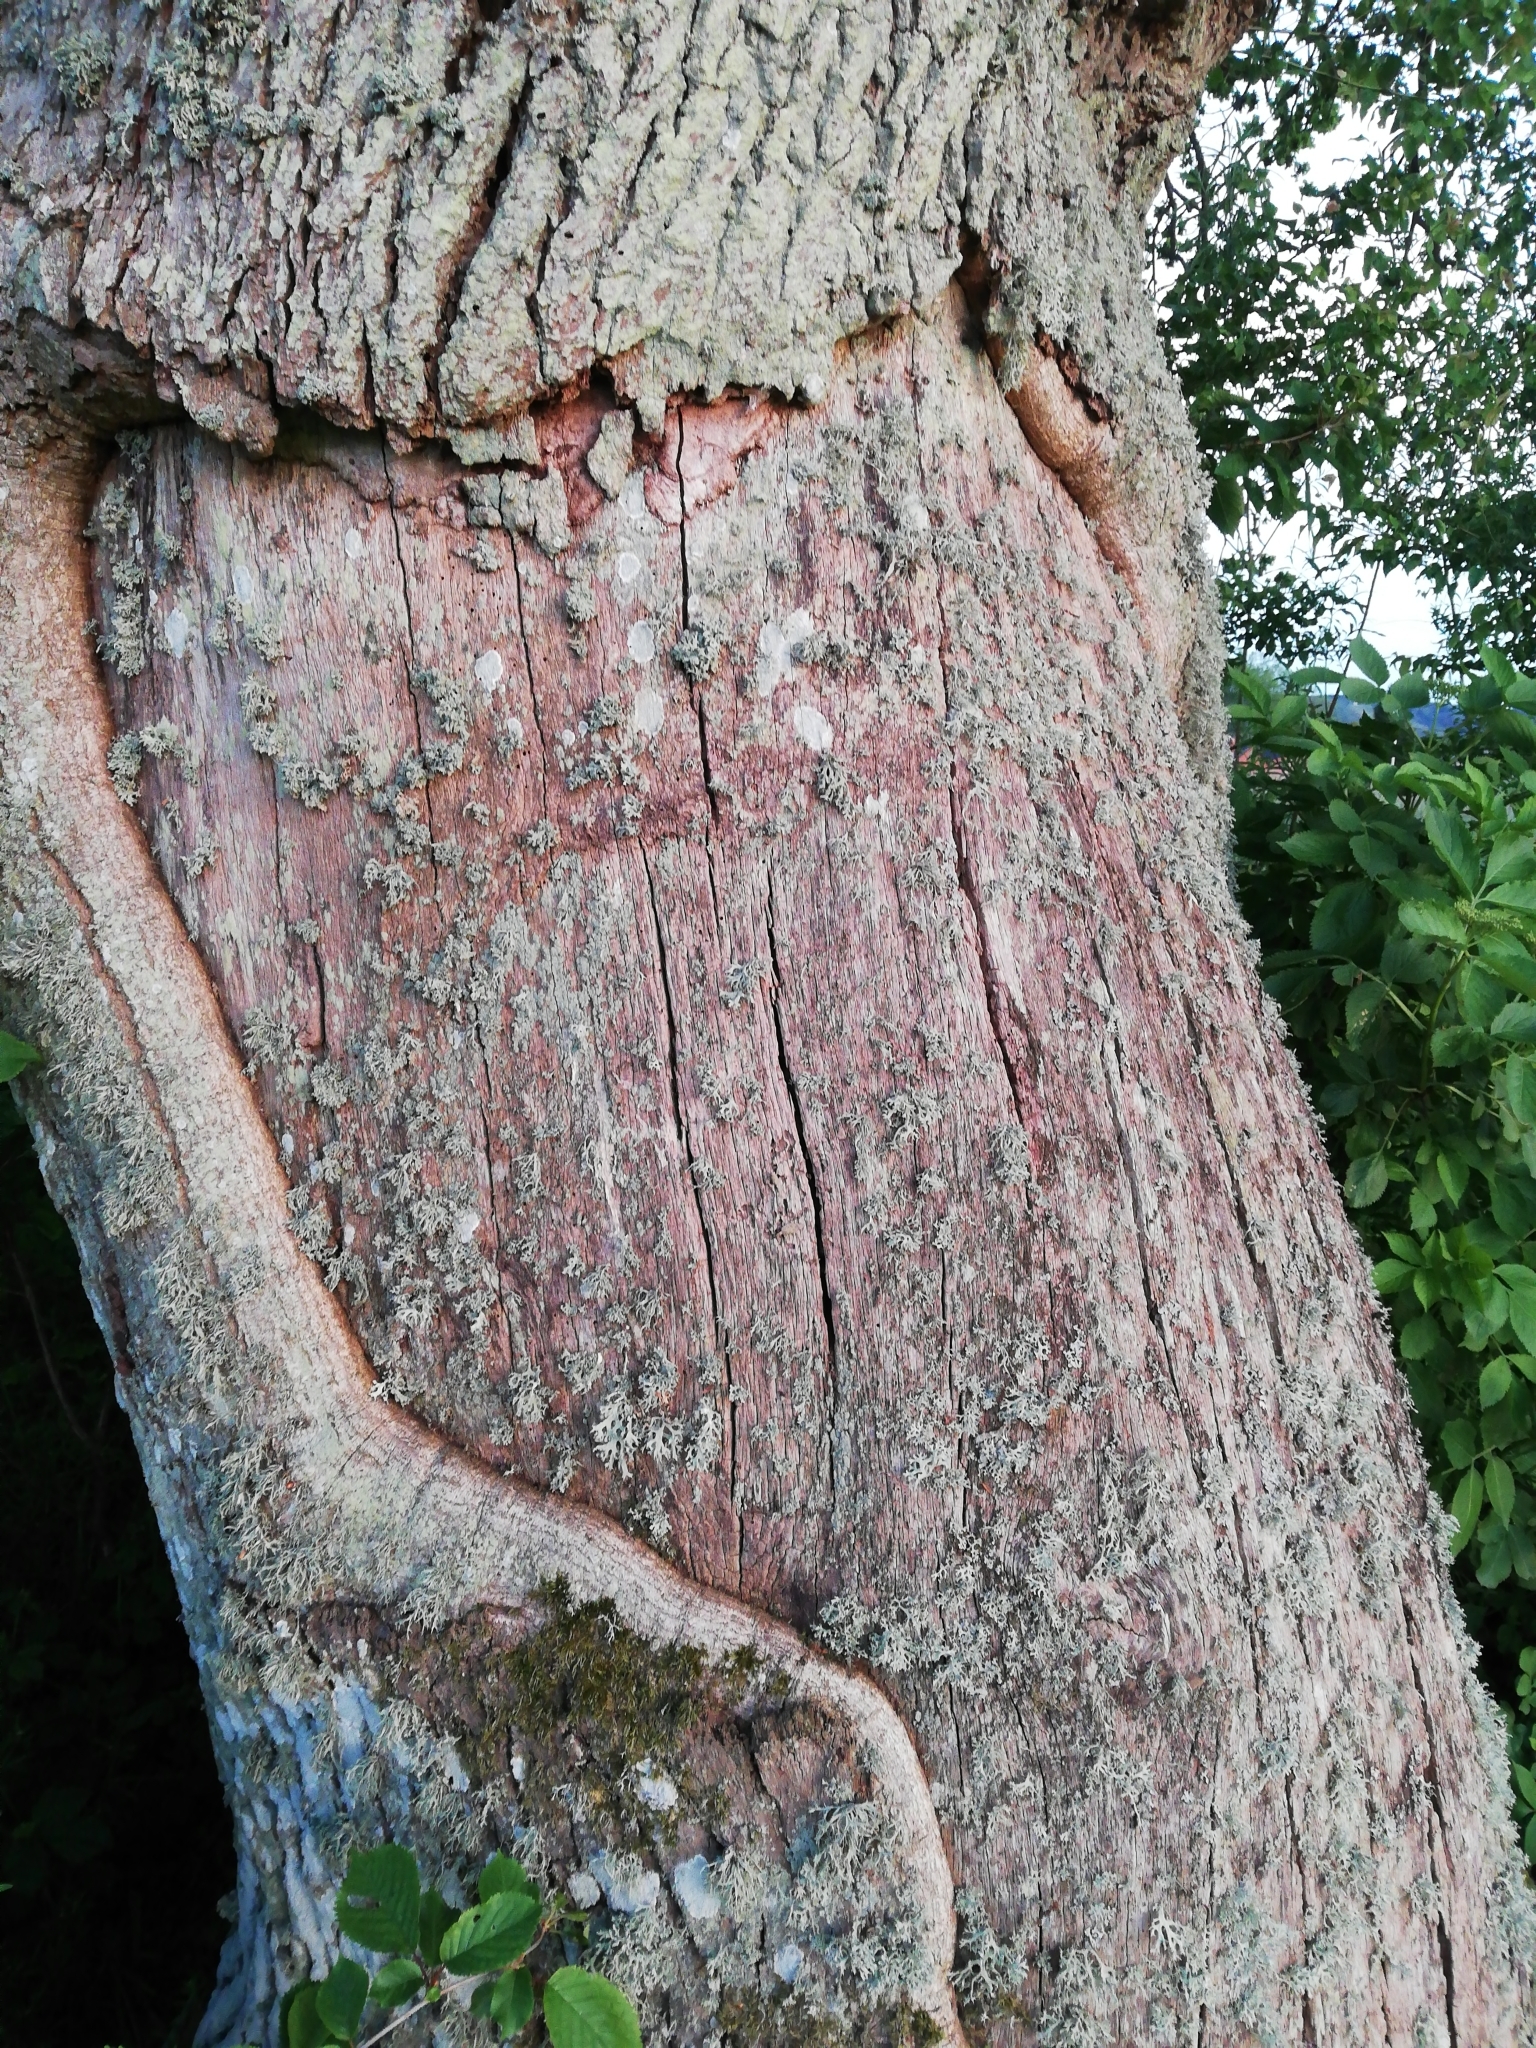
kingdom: Fungi
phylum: Ascomycota
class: Lecanoromycetes
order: Lecanorales
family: Parmeliaceae
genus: Evernia
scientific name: Evernia prunastri
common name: Oak moss
